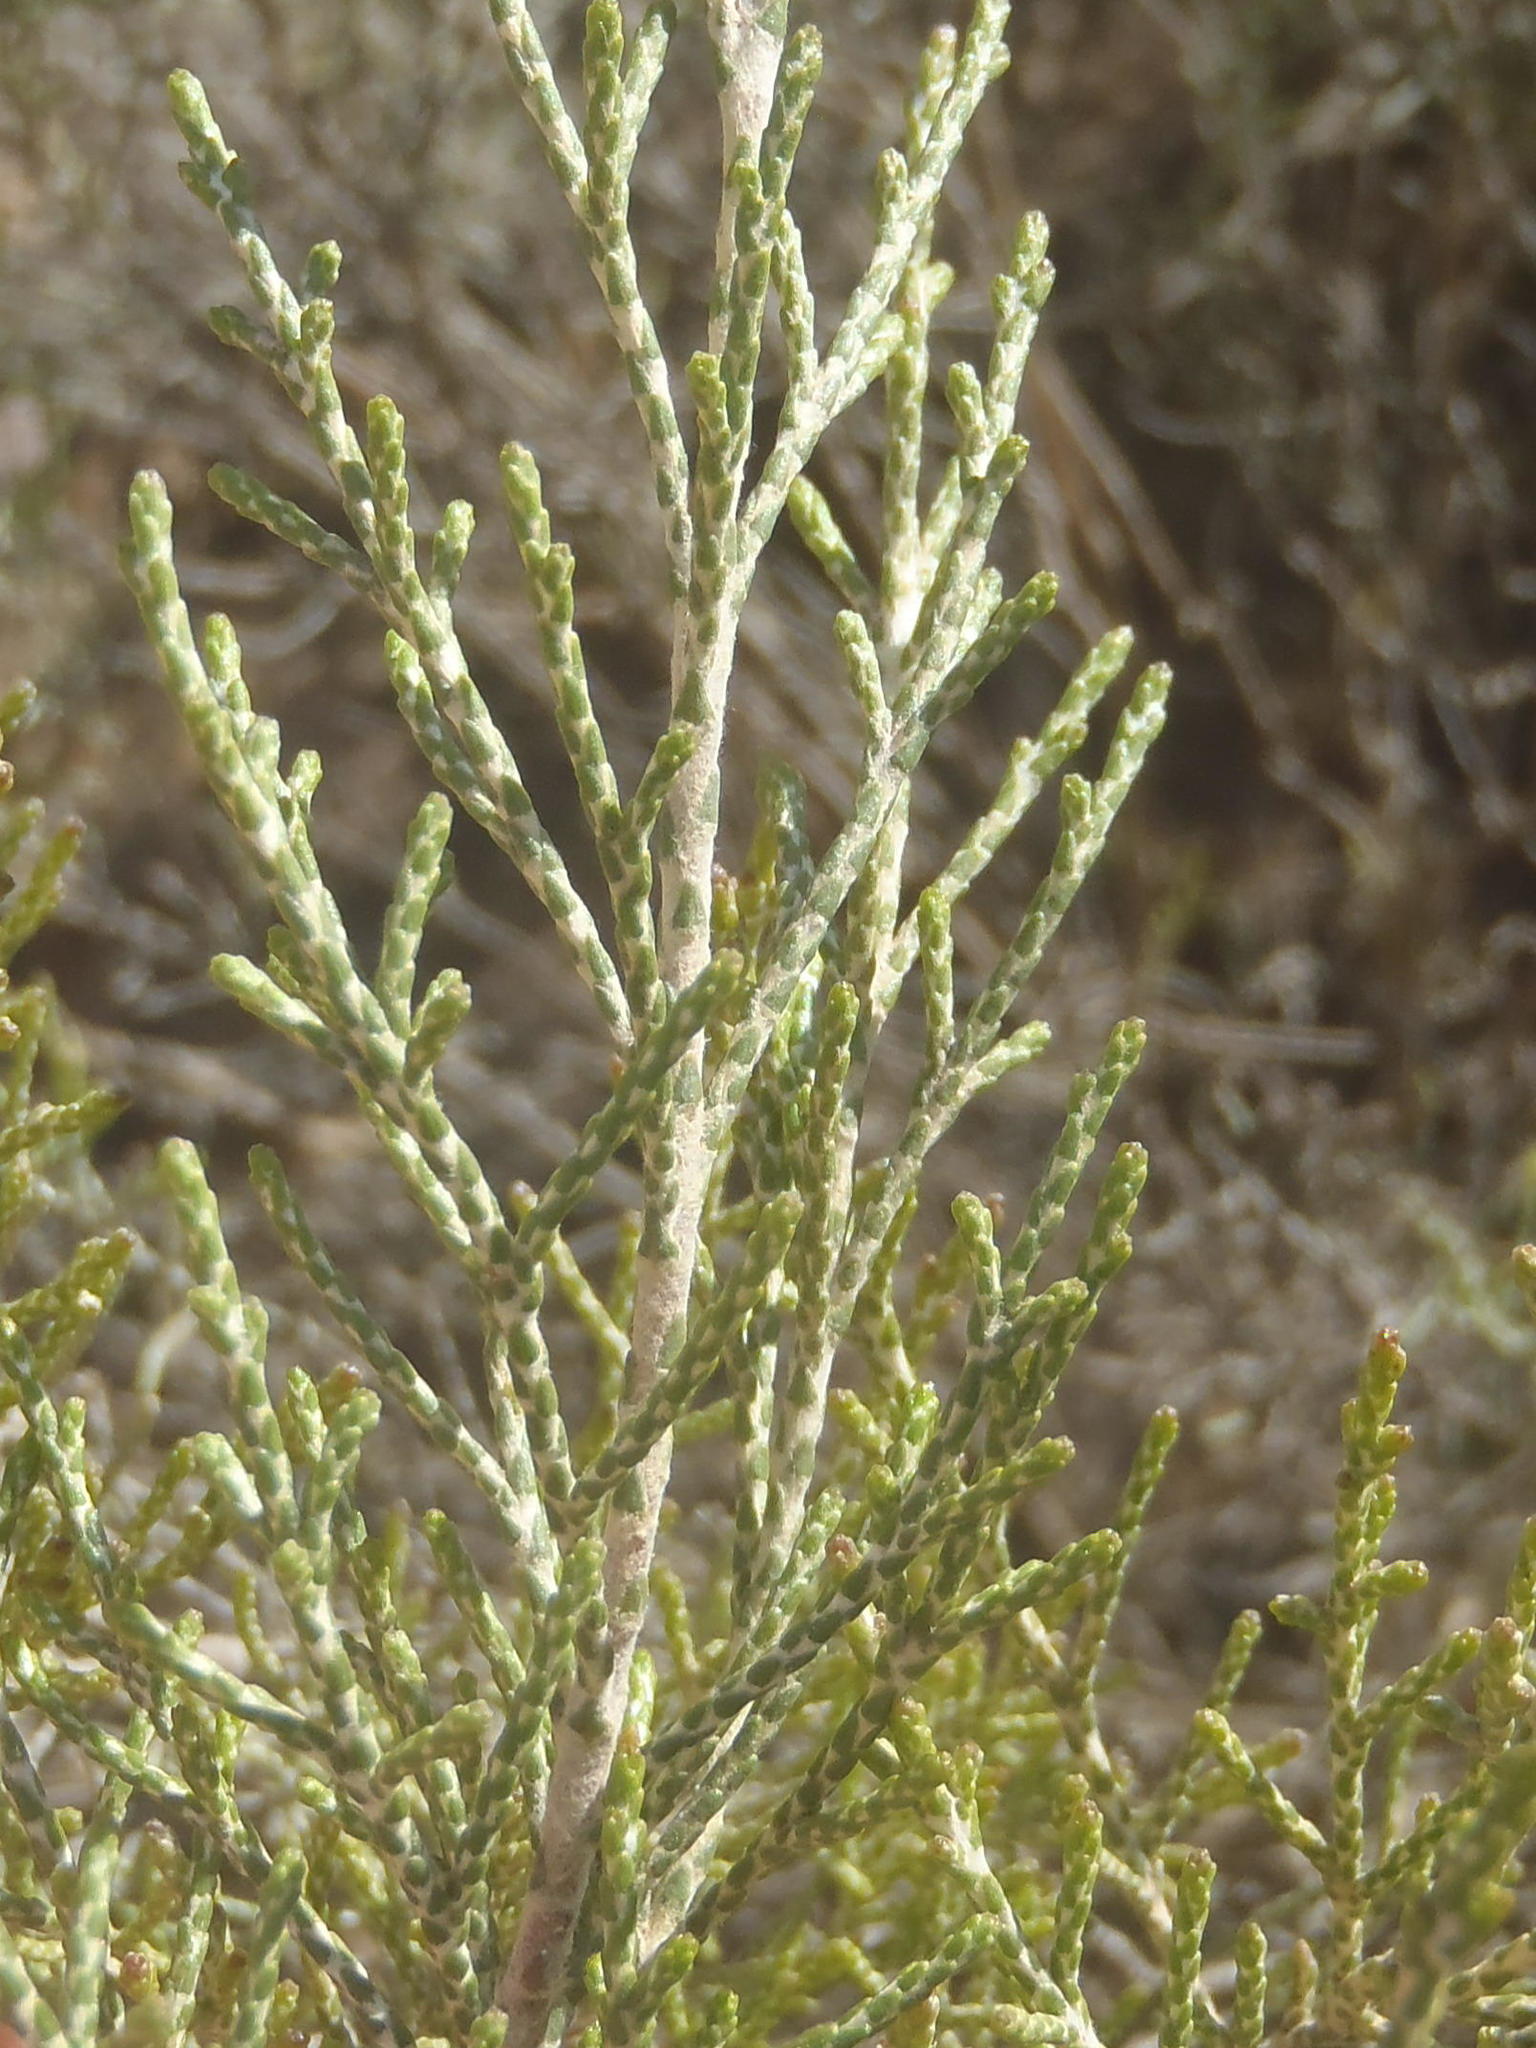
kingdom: Plantae
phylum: Tracheophyta
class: Magnoliopsida
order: Asterales
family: Asteraceae
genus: Dicerothamnus
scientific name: Dicerothamnus rhinocerotis
